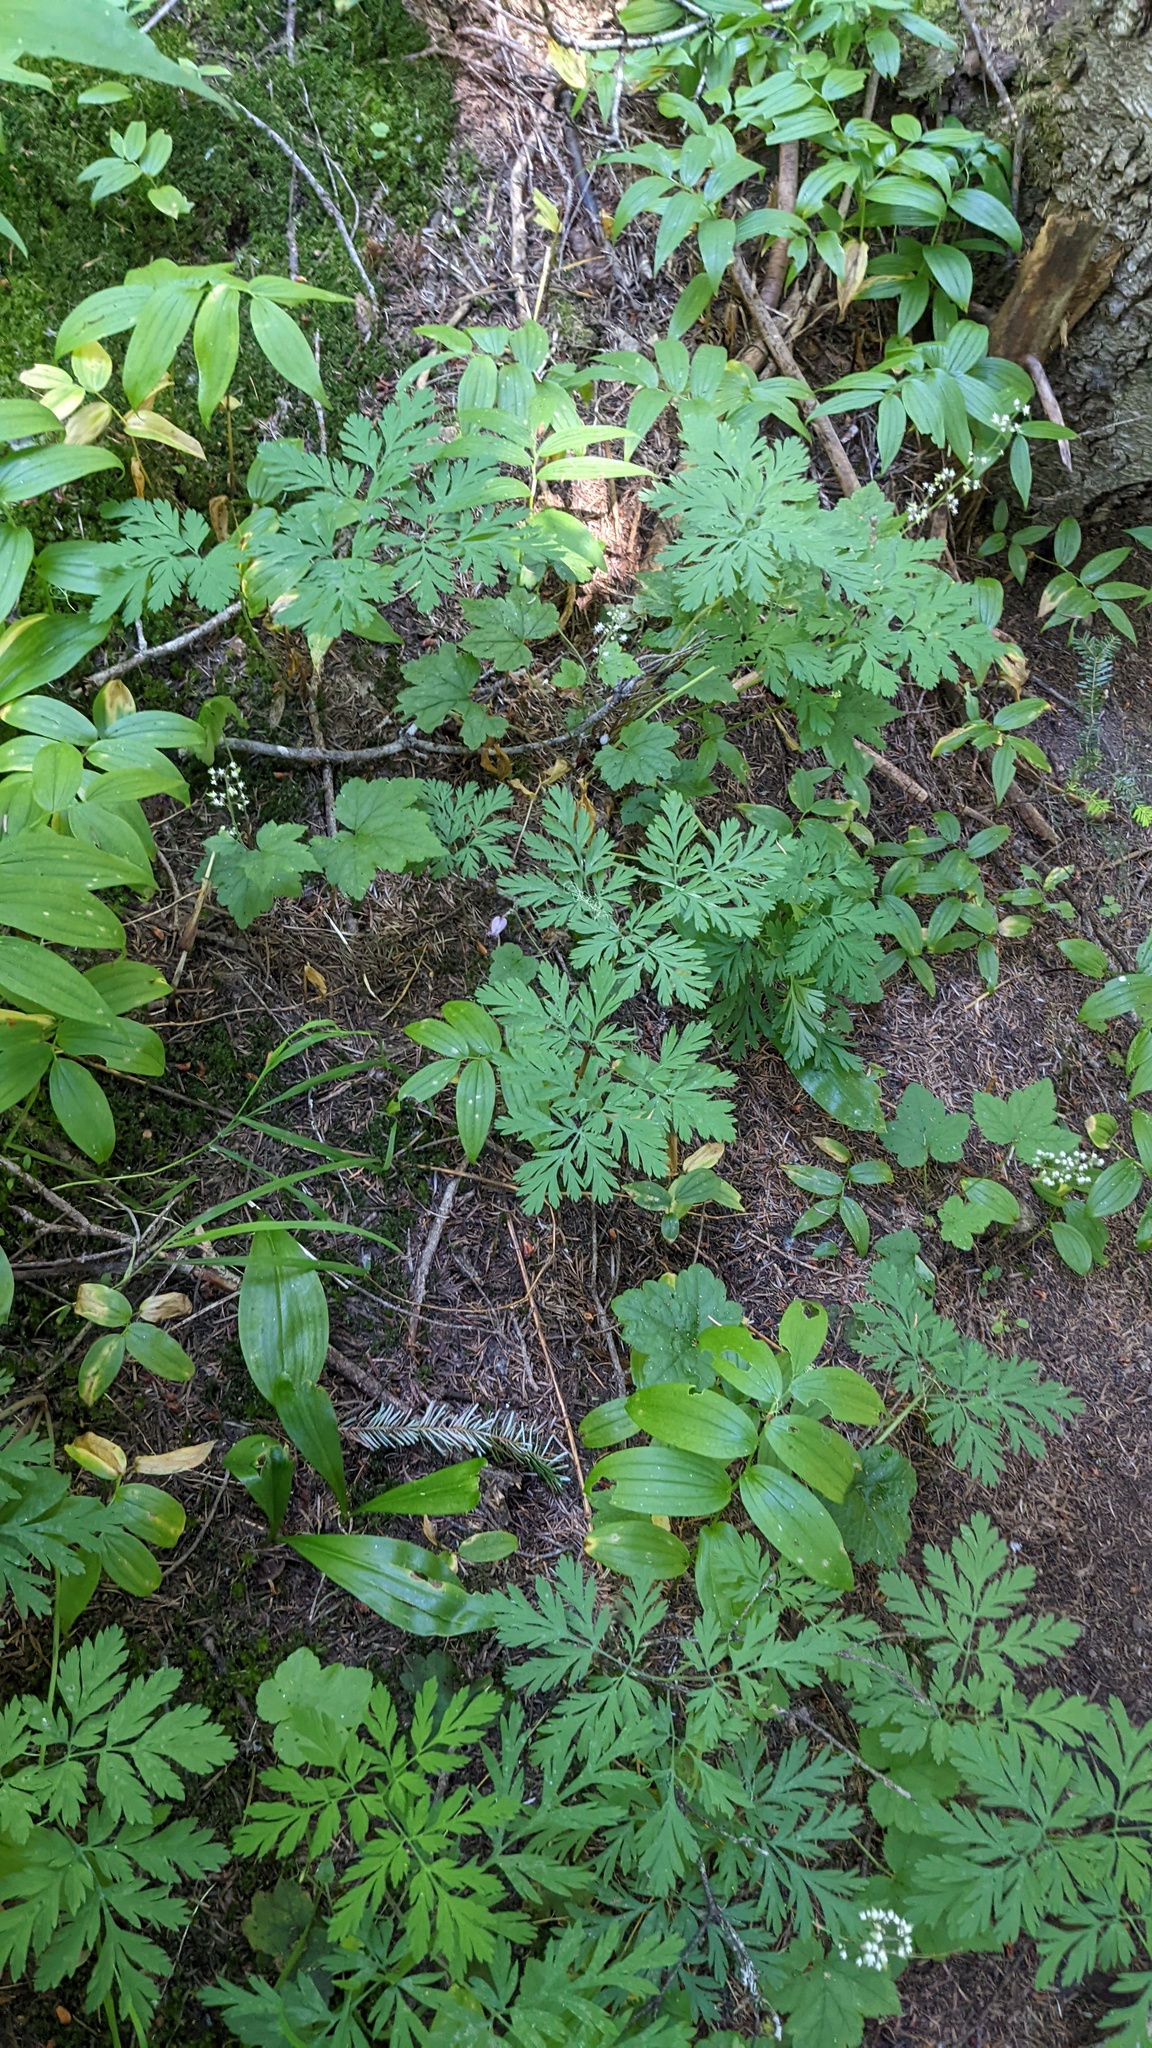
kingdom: Plantae
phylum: Tracheophyta
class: Magnoliopsida
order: Ranunculales
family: Papaveraceae
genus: Dicentra
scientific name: Dicentra formosa
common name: Bleeding-heart
